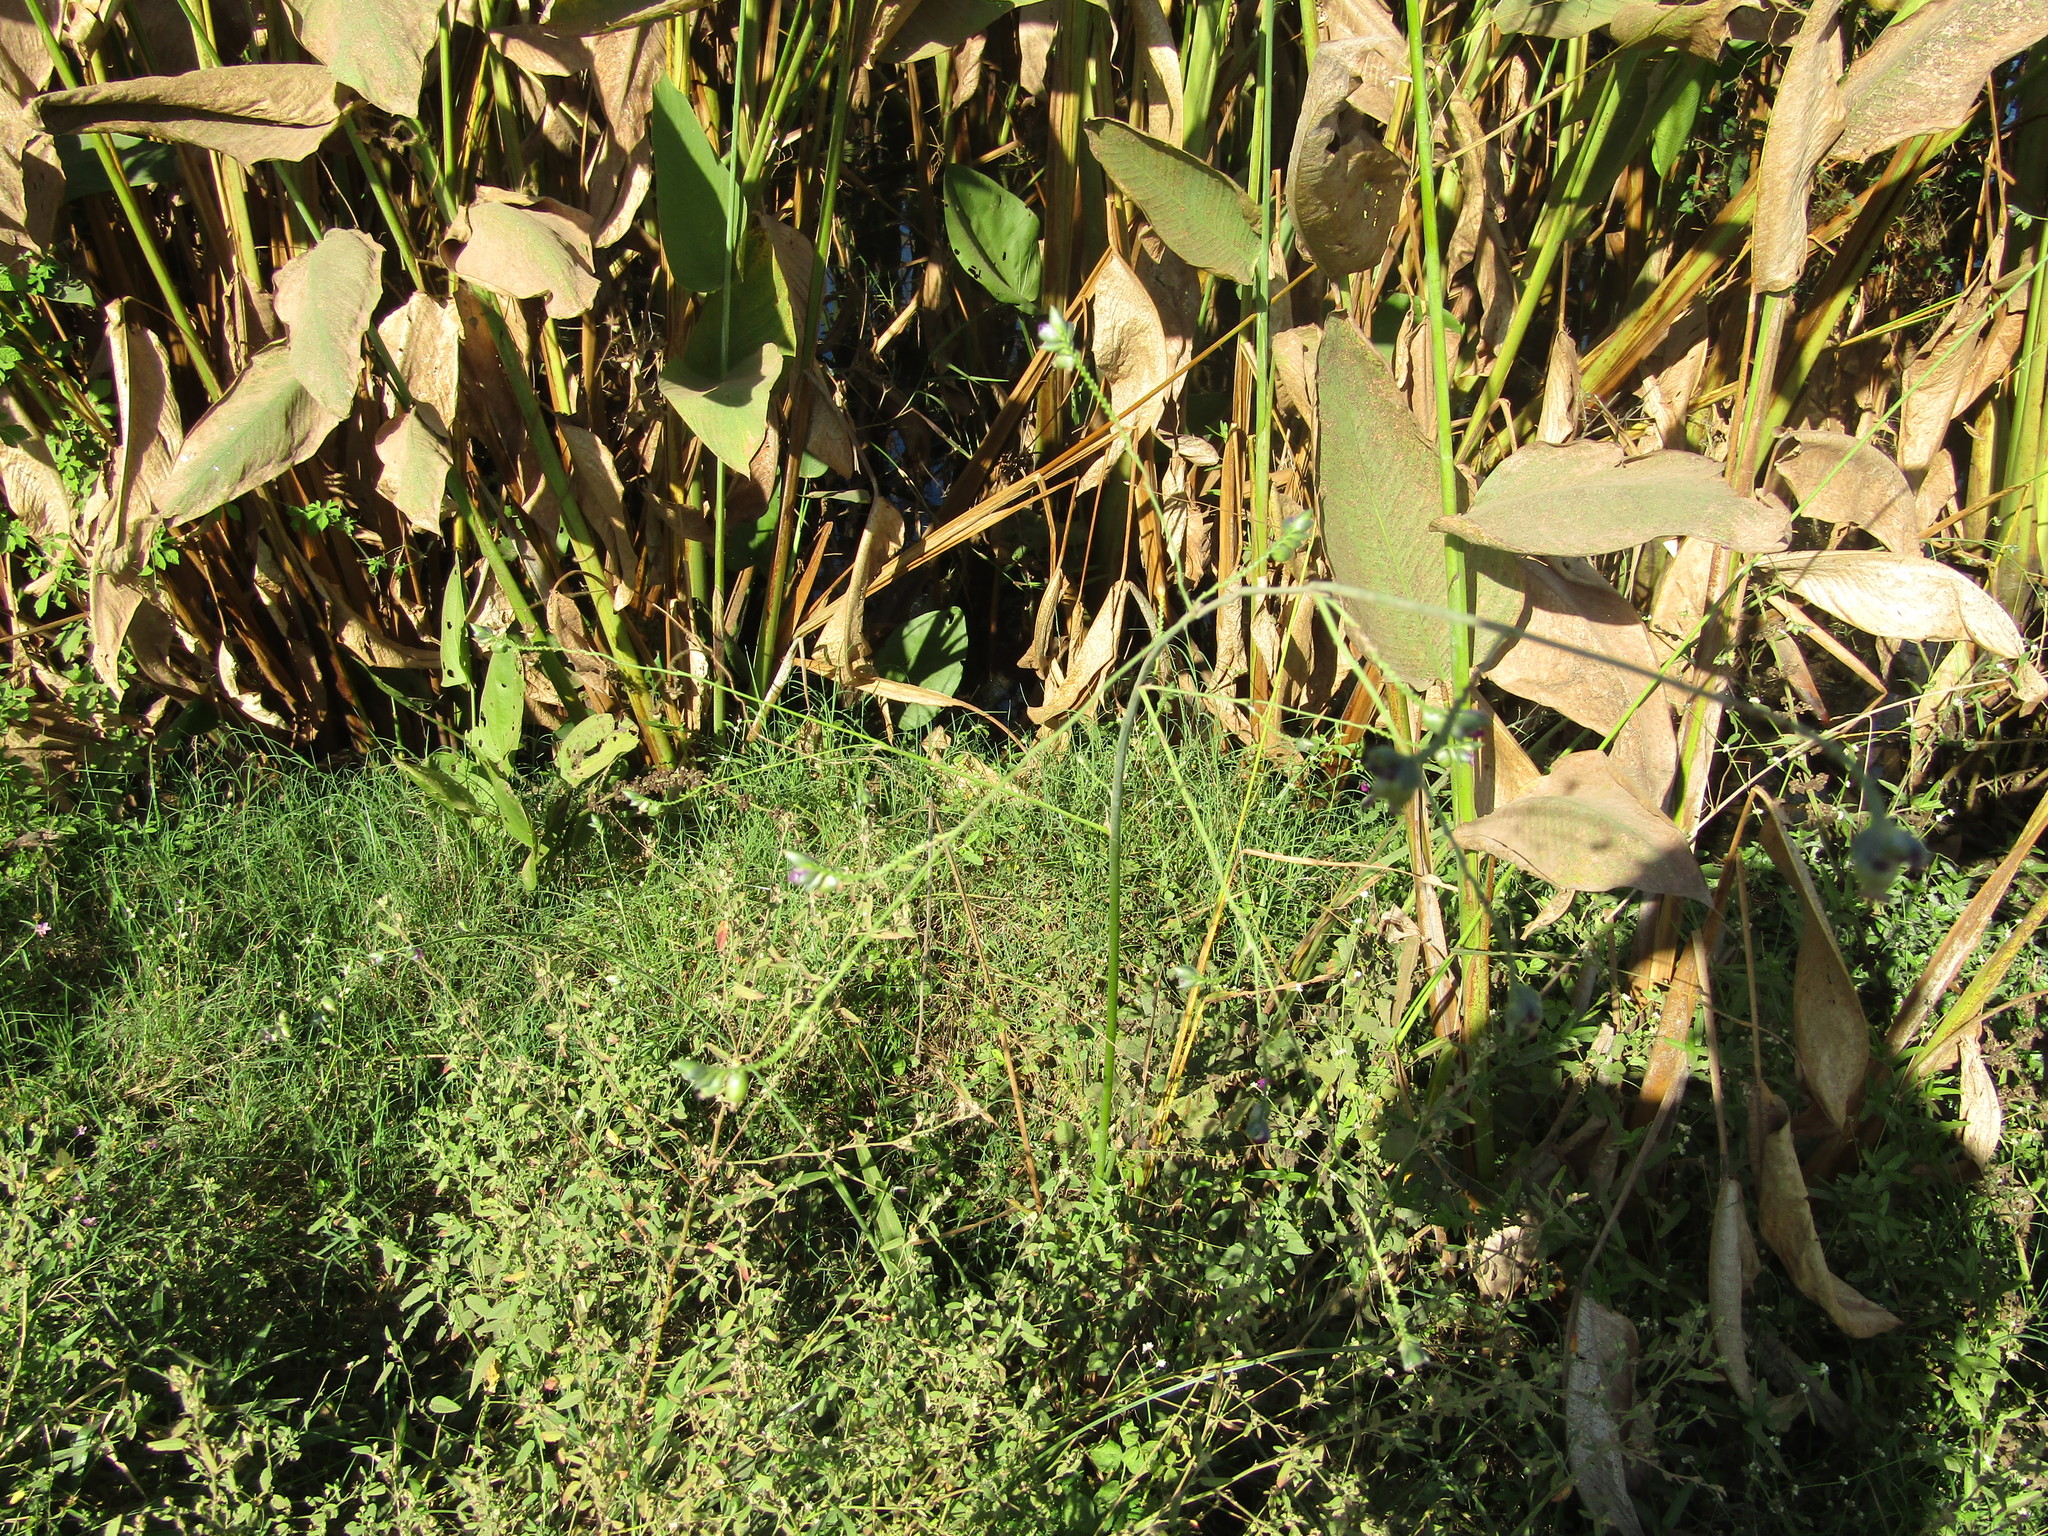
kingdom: Plantae
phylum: Tracheophyta
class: Liliopsida
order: Zingiberales
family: Marantaceae
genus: Thalia
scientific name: Thalia densibracteata
